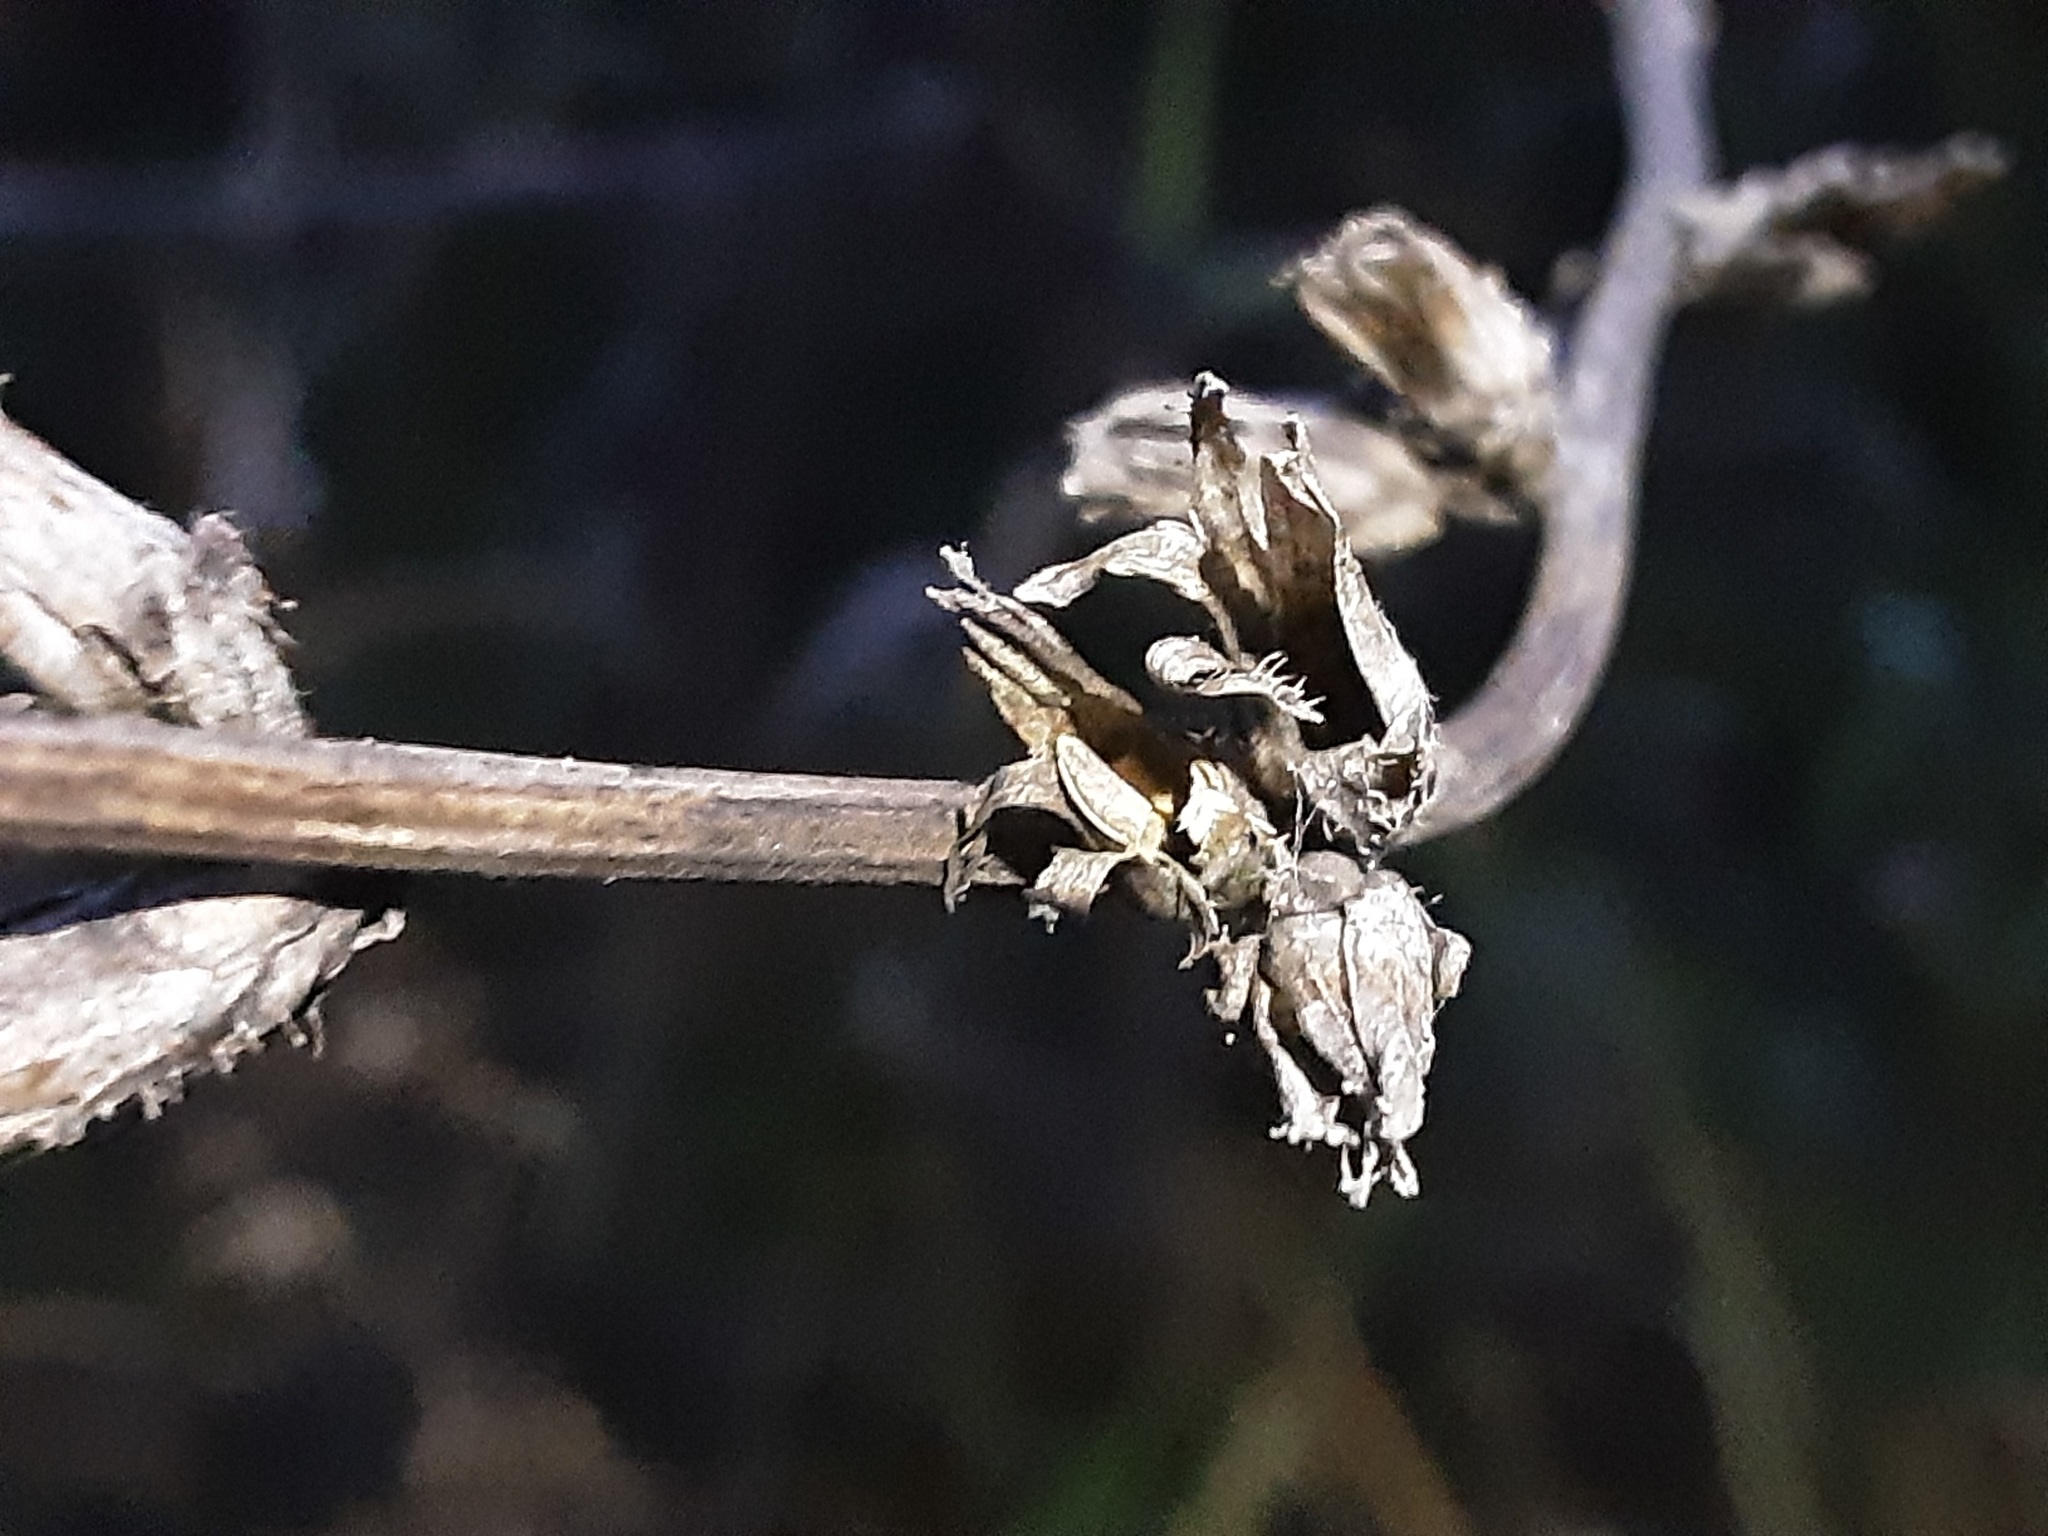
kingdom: Plantae
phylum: Tracheophyta
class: Magnoliopsida
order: Asterales
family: Asteraceae
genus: Cichorium
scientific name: Cichorium intybus
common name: Chicory
